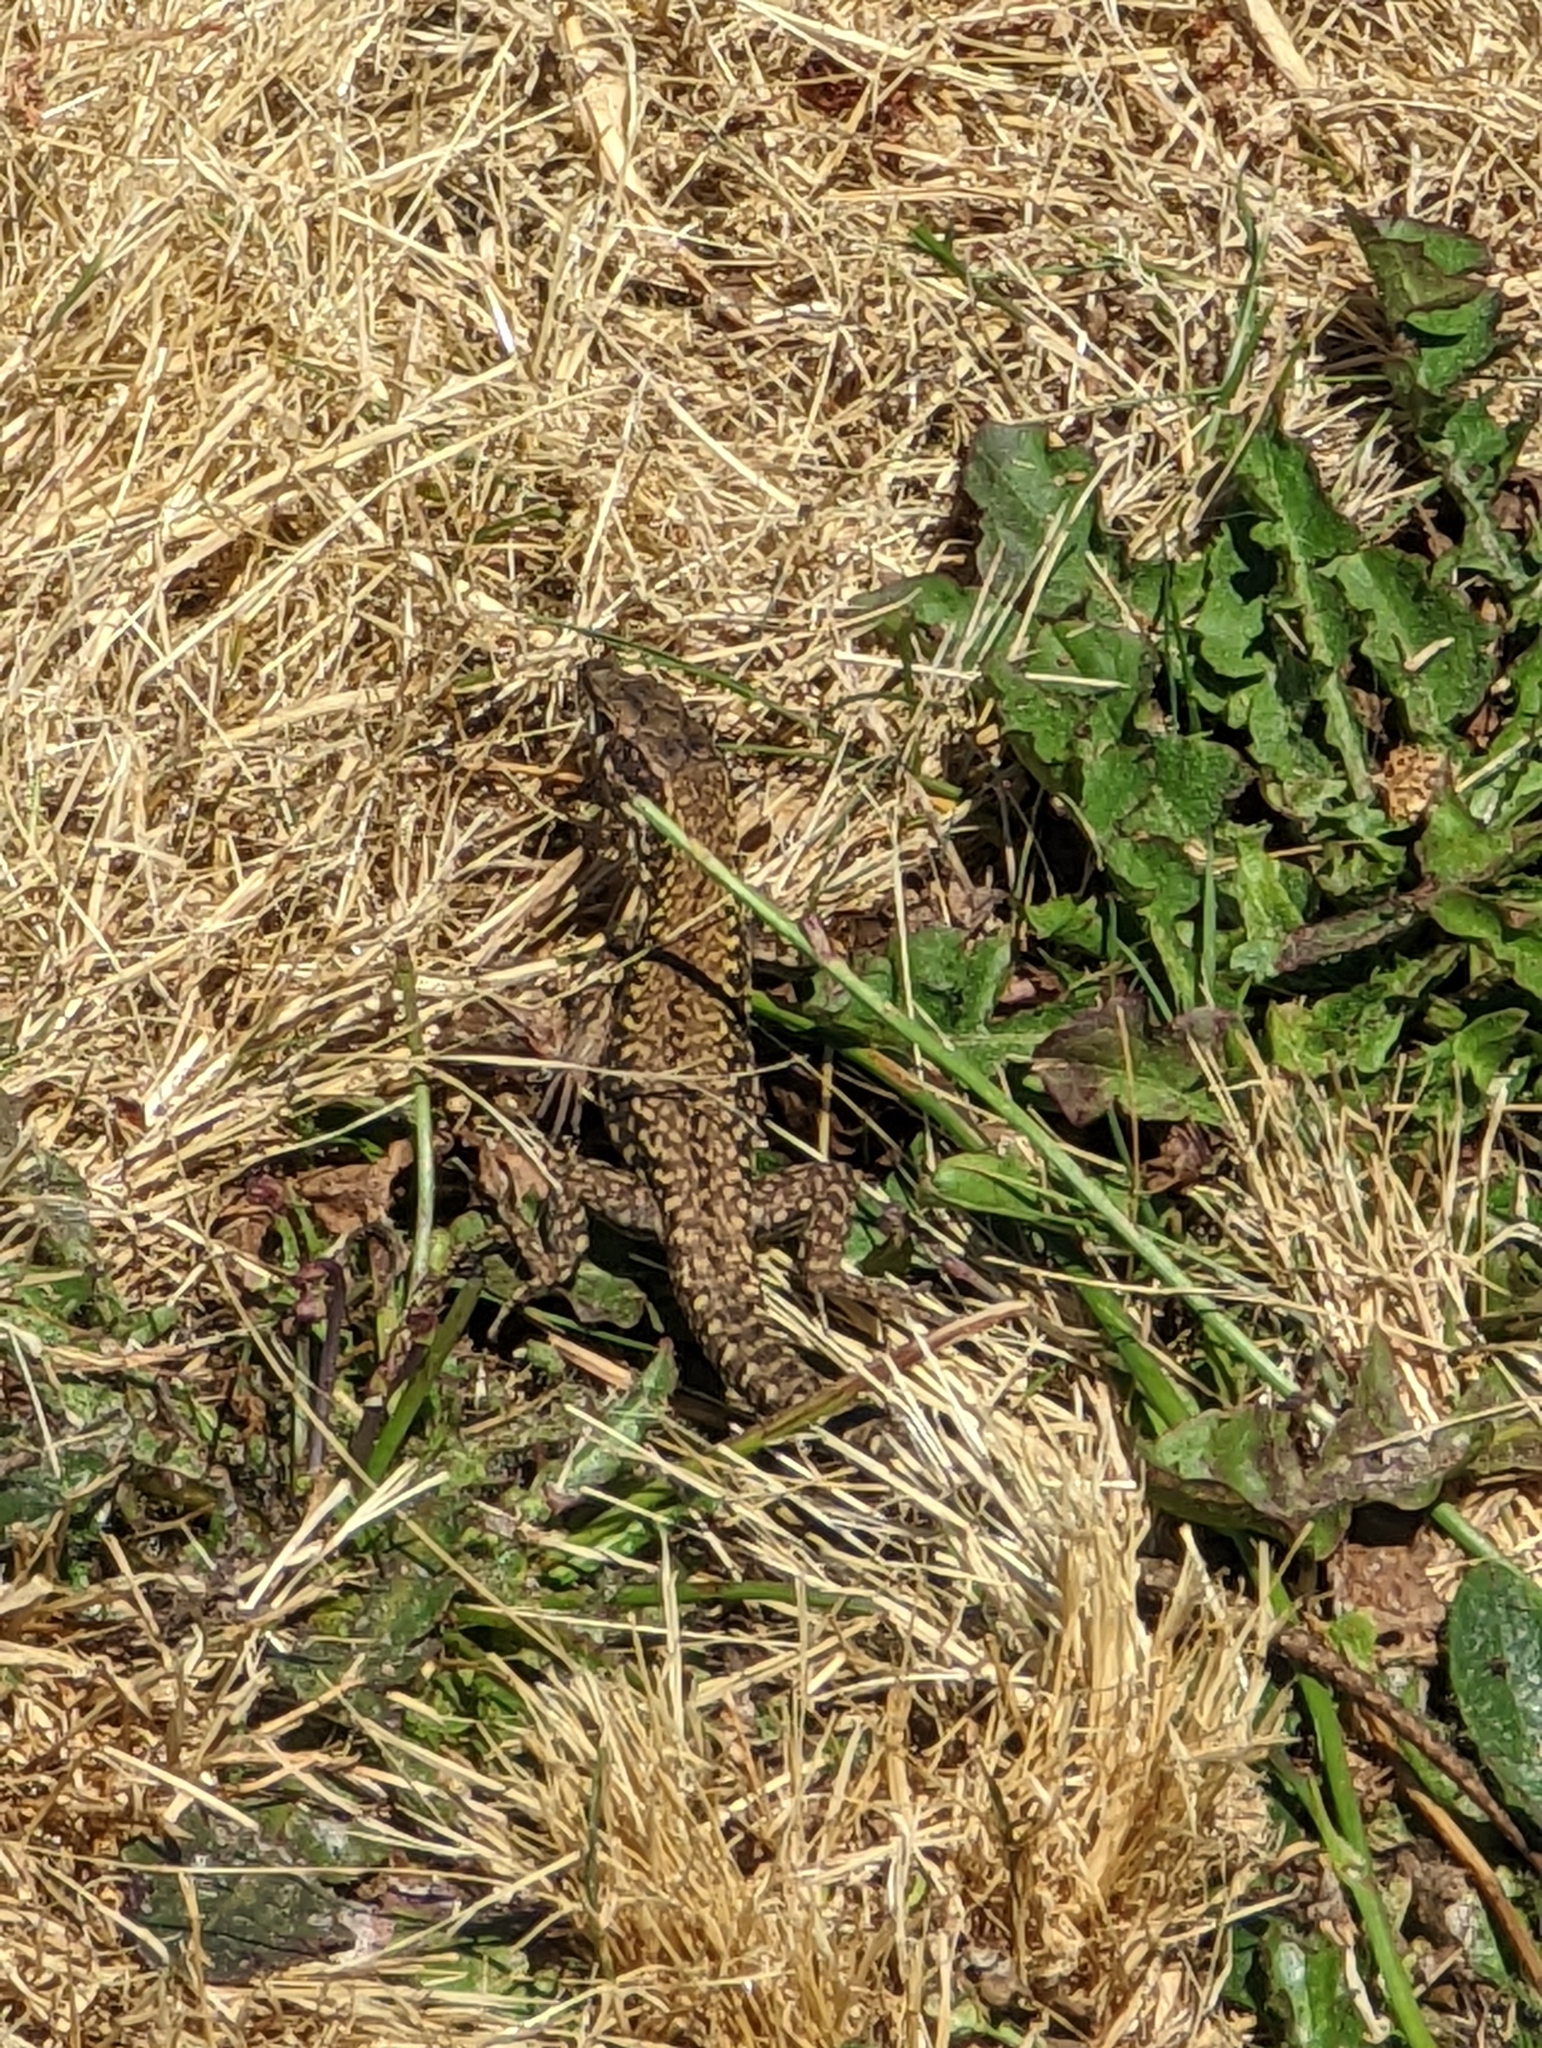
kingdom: Animalia
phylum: Chordata
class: Squamata
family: Lacertidae
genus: Podarcis
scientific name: Podarcis muralis
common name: Common wall lizard
